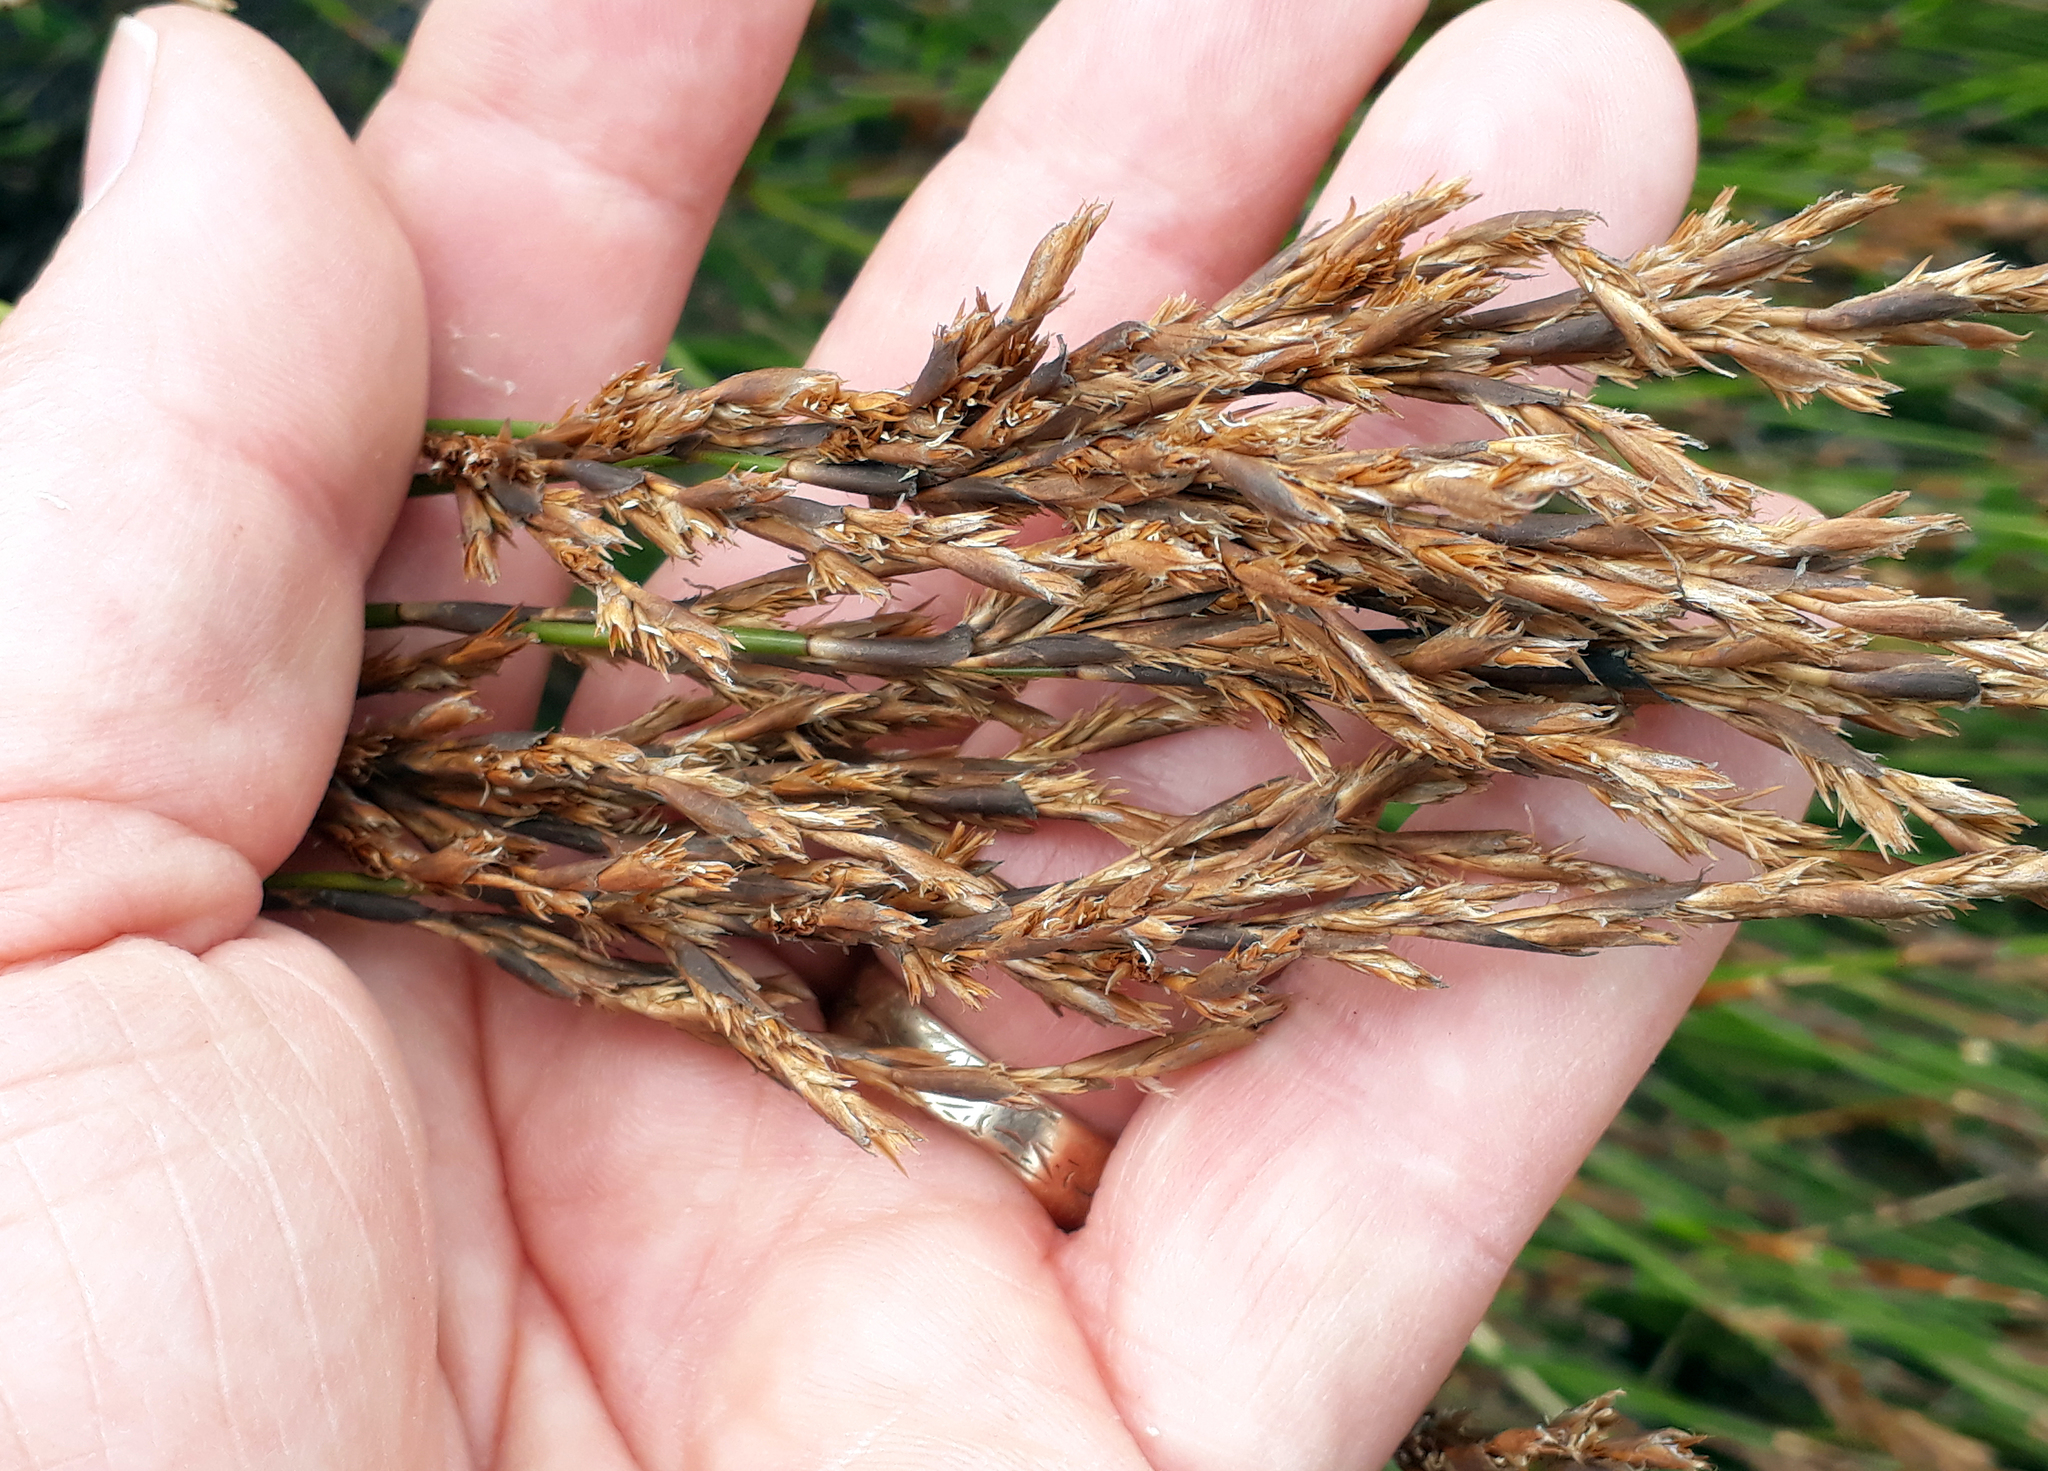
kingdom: Plantae
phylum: Tracheophyta
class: Liliopsida
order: Poales
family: Restionaceae
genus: Sporadanthus
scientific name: Sporadanthus traversii
